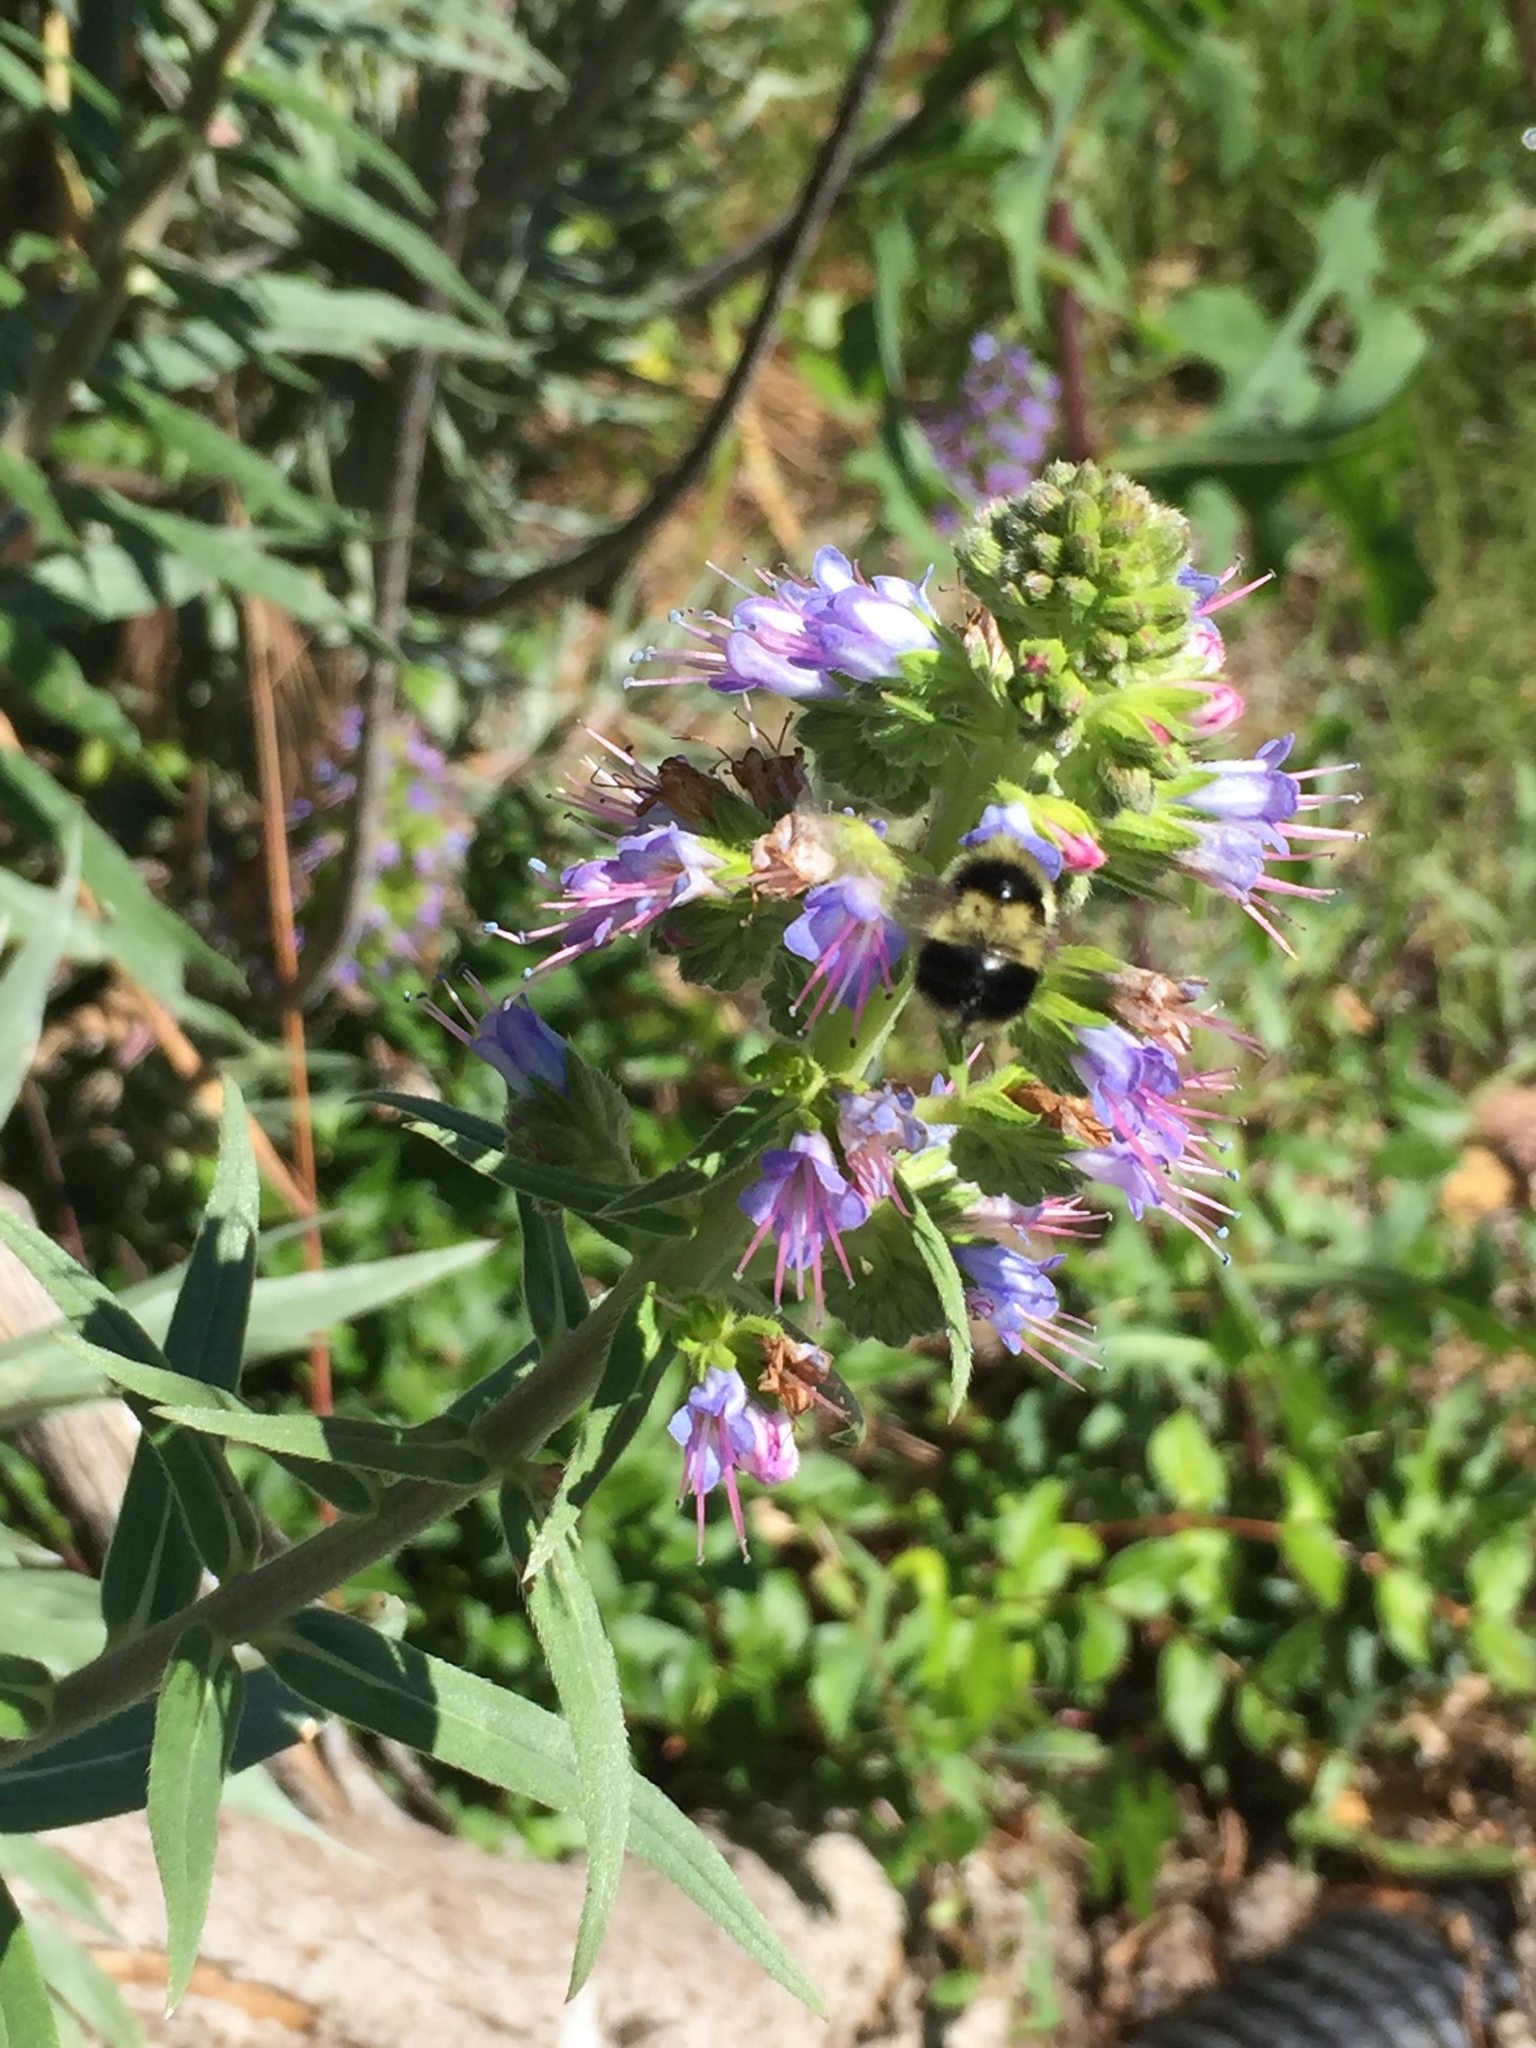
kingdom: Animalia
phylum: Arthropoda
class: Insecta
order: Hymenoptera
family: Apidae
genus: Bombus
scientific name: Bombus melanopygus
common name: Black tail bumble bee
